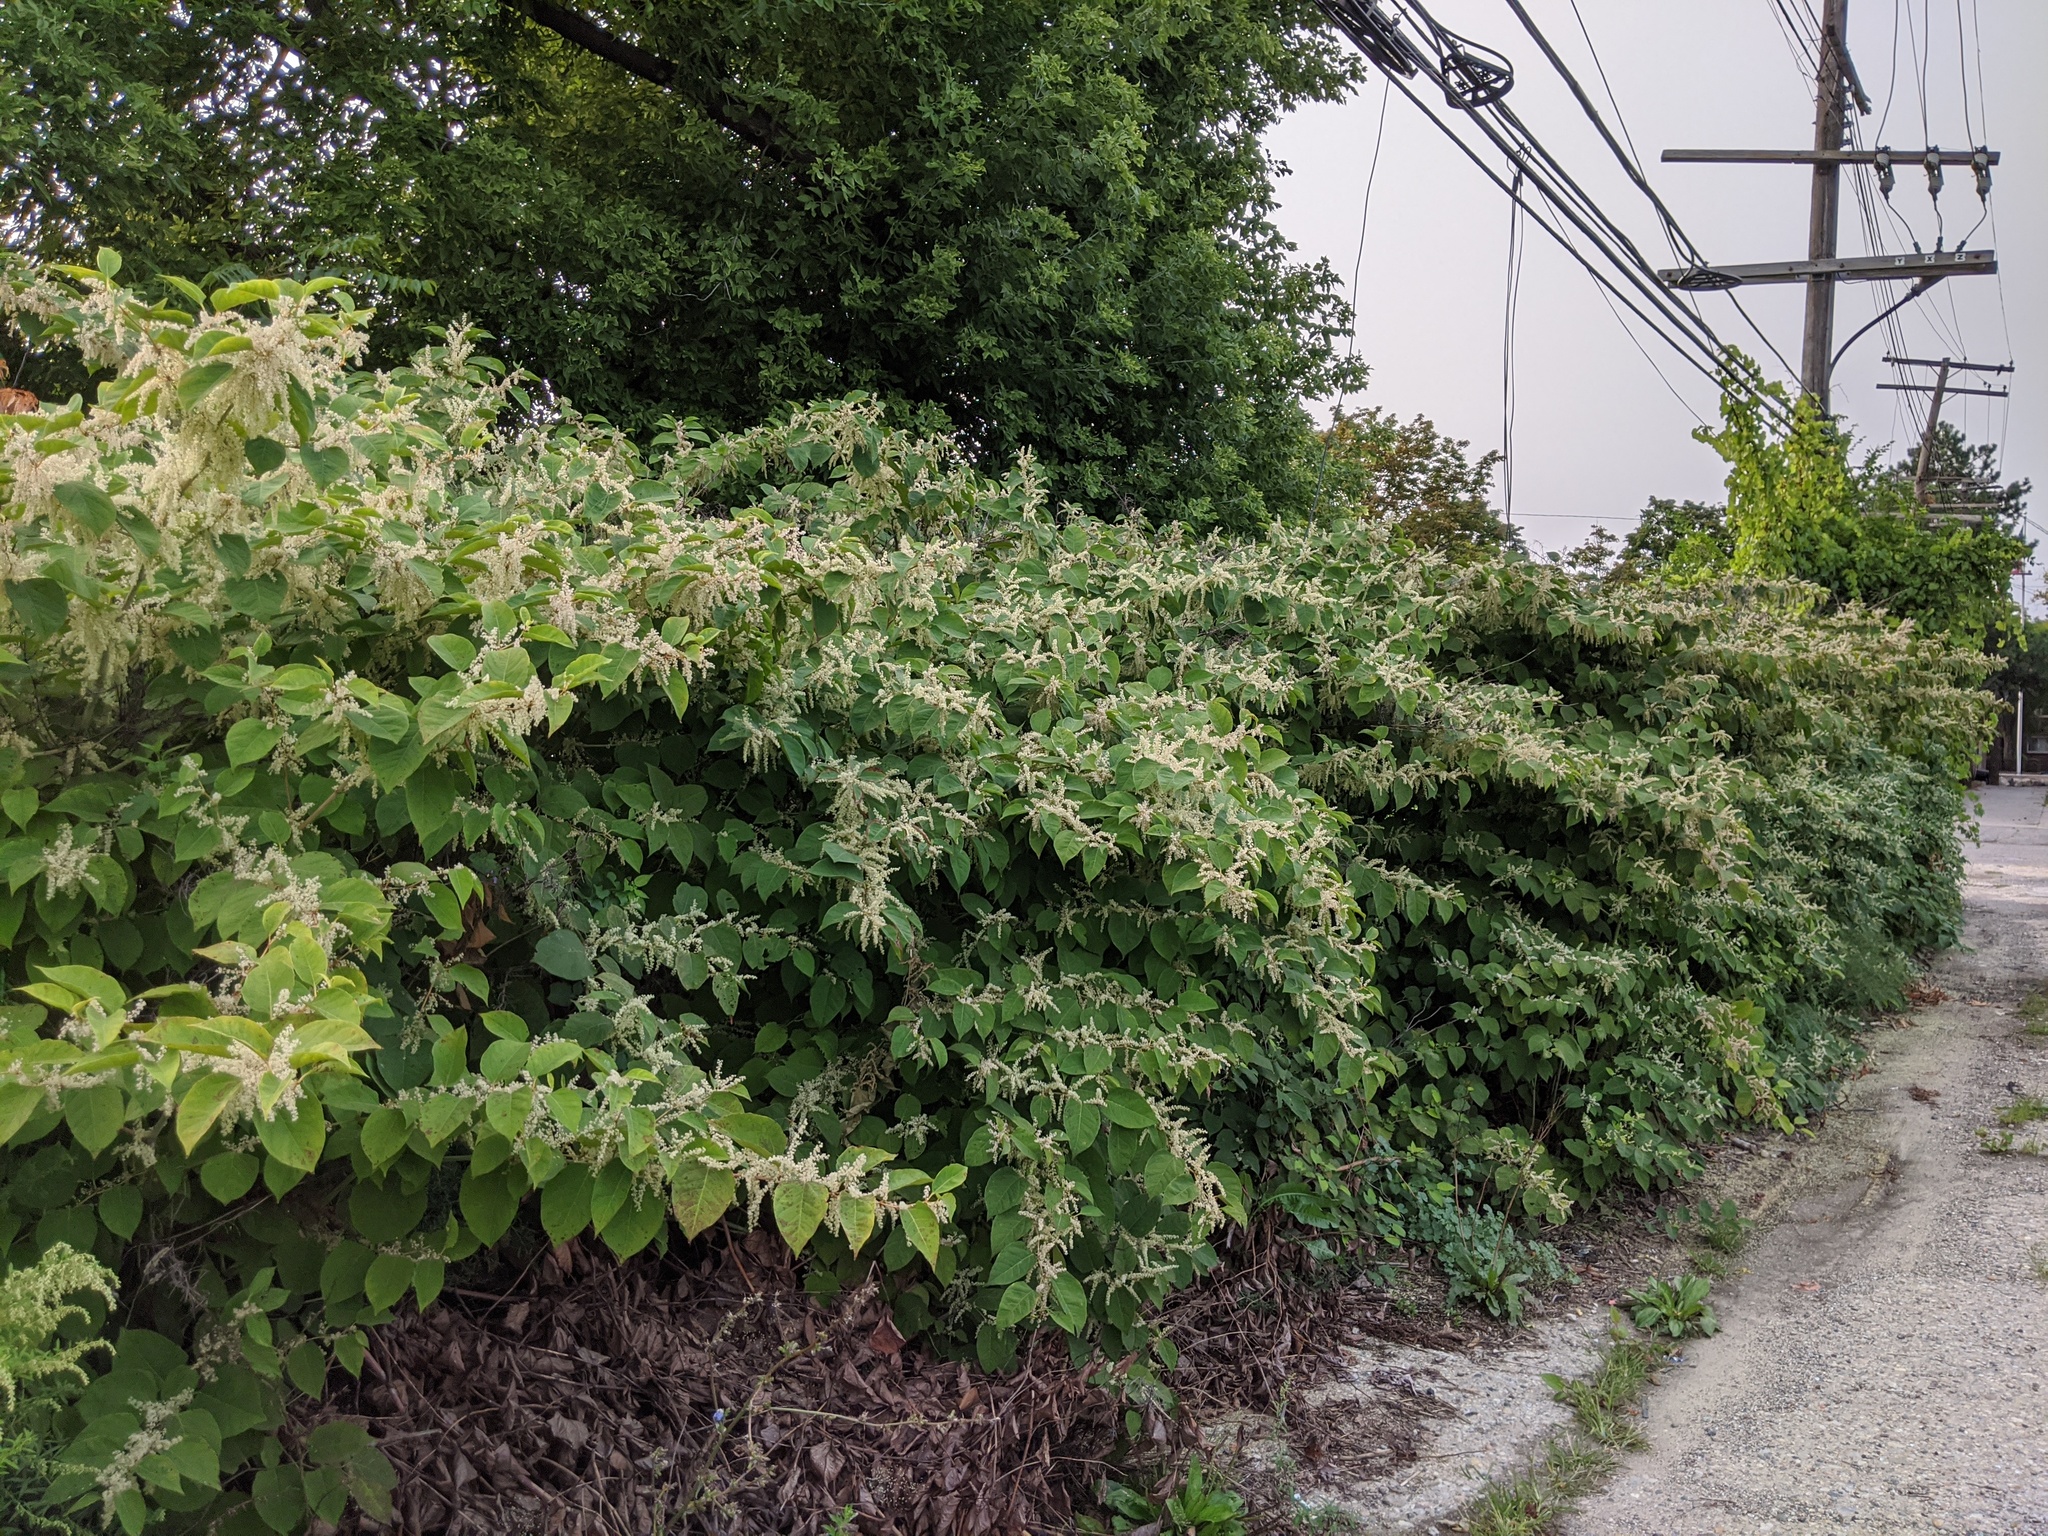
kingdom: Plantae
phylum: Tracheophyta
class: Magnoliopsida
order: Caryophyllales
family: Polygonaceae
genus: Reynoutria
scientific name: Reynoutria japonica
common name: Japanese knotweed
